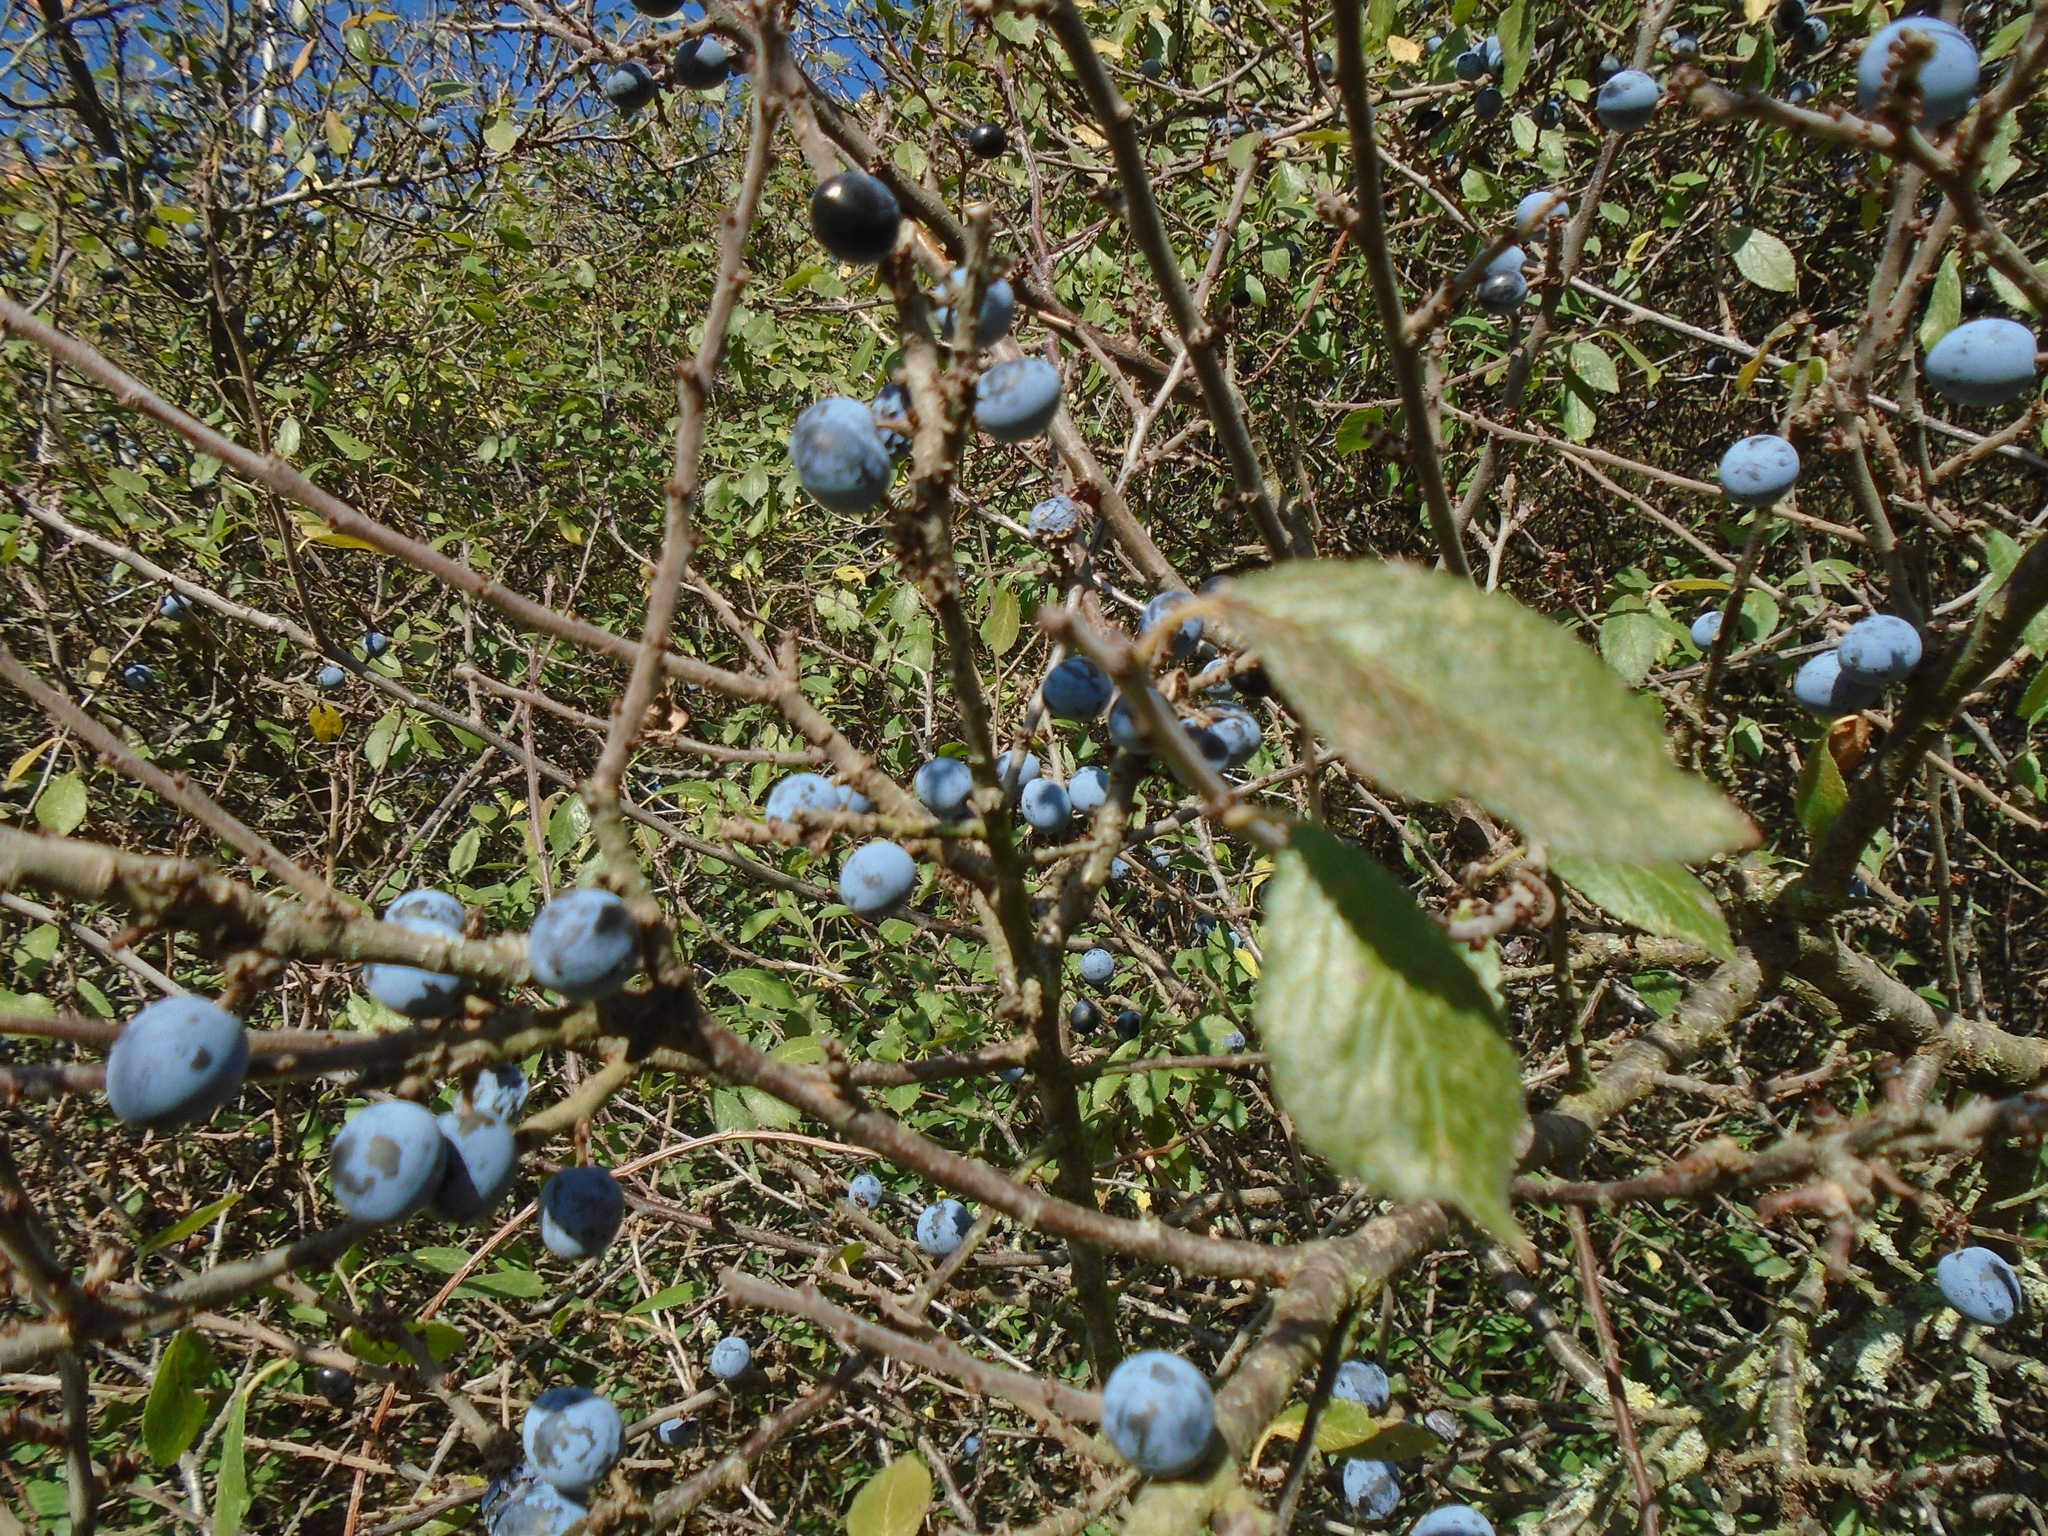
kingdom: Plantae
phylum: Tracheophyta
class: Magnoliopsida
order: Rosales
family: Rosaceae
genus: Prunus
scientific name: Prunus spinosa
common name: Blackthorn
